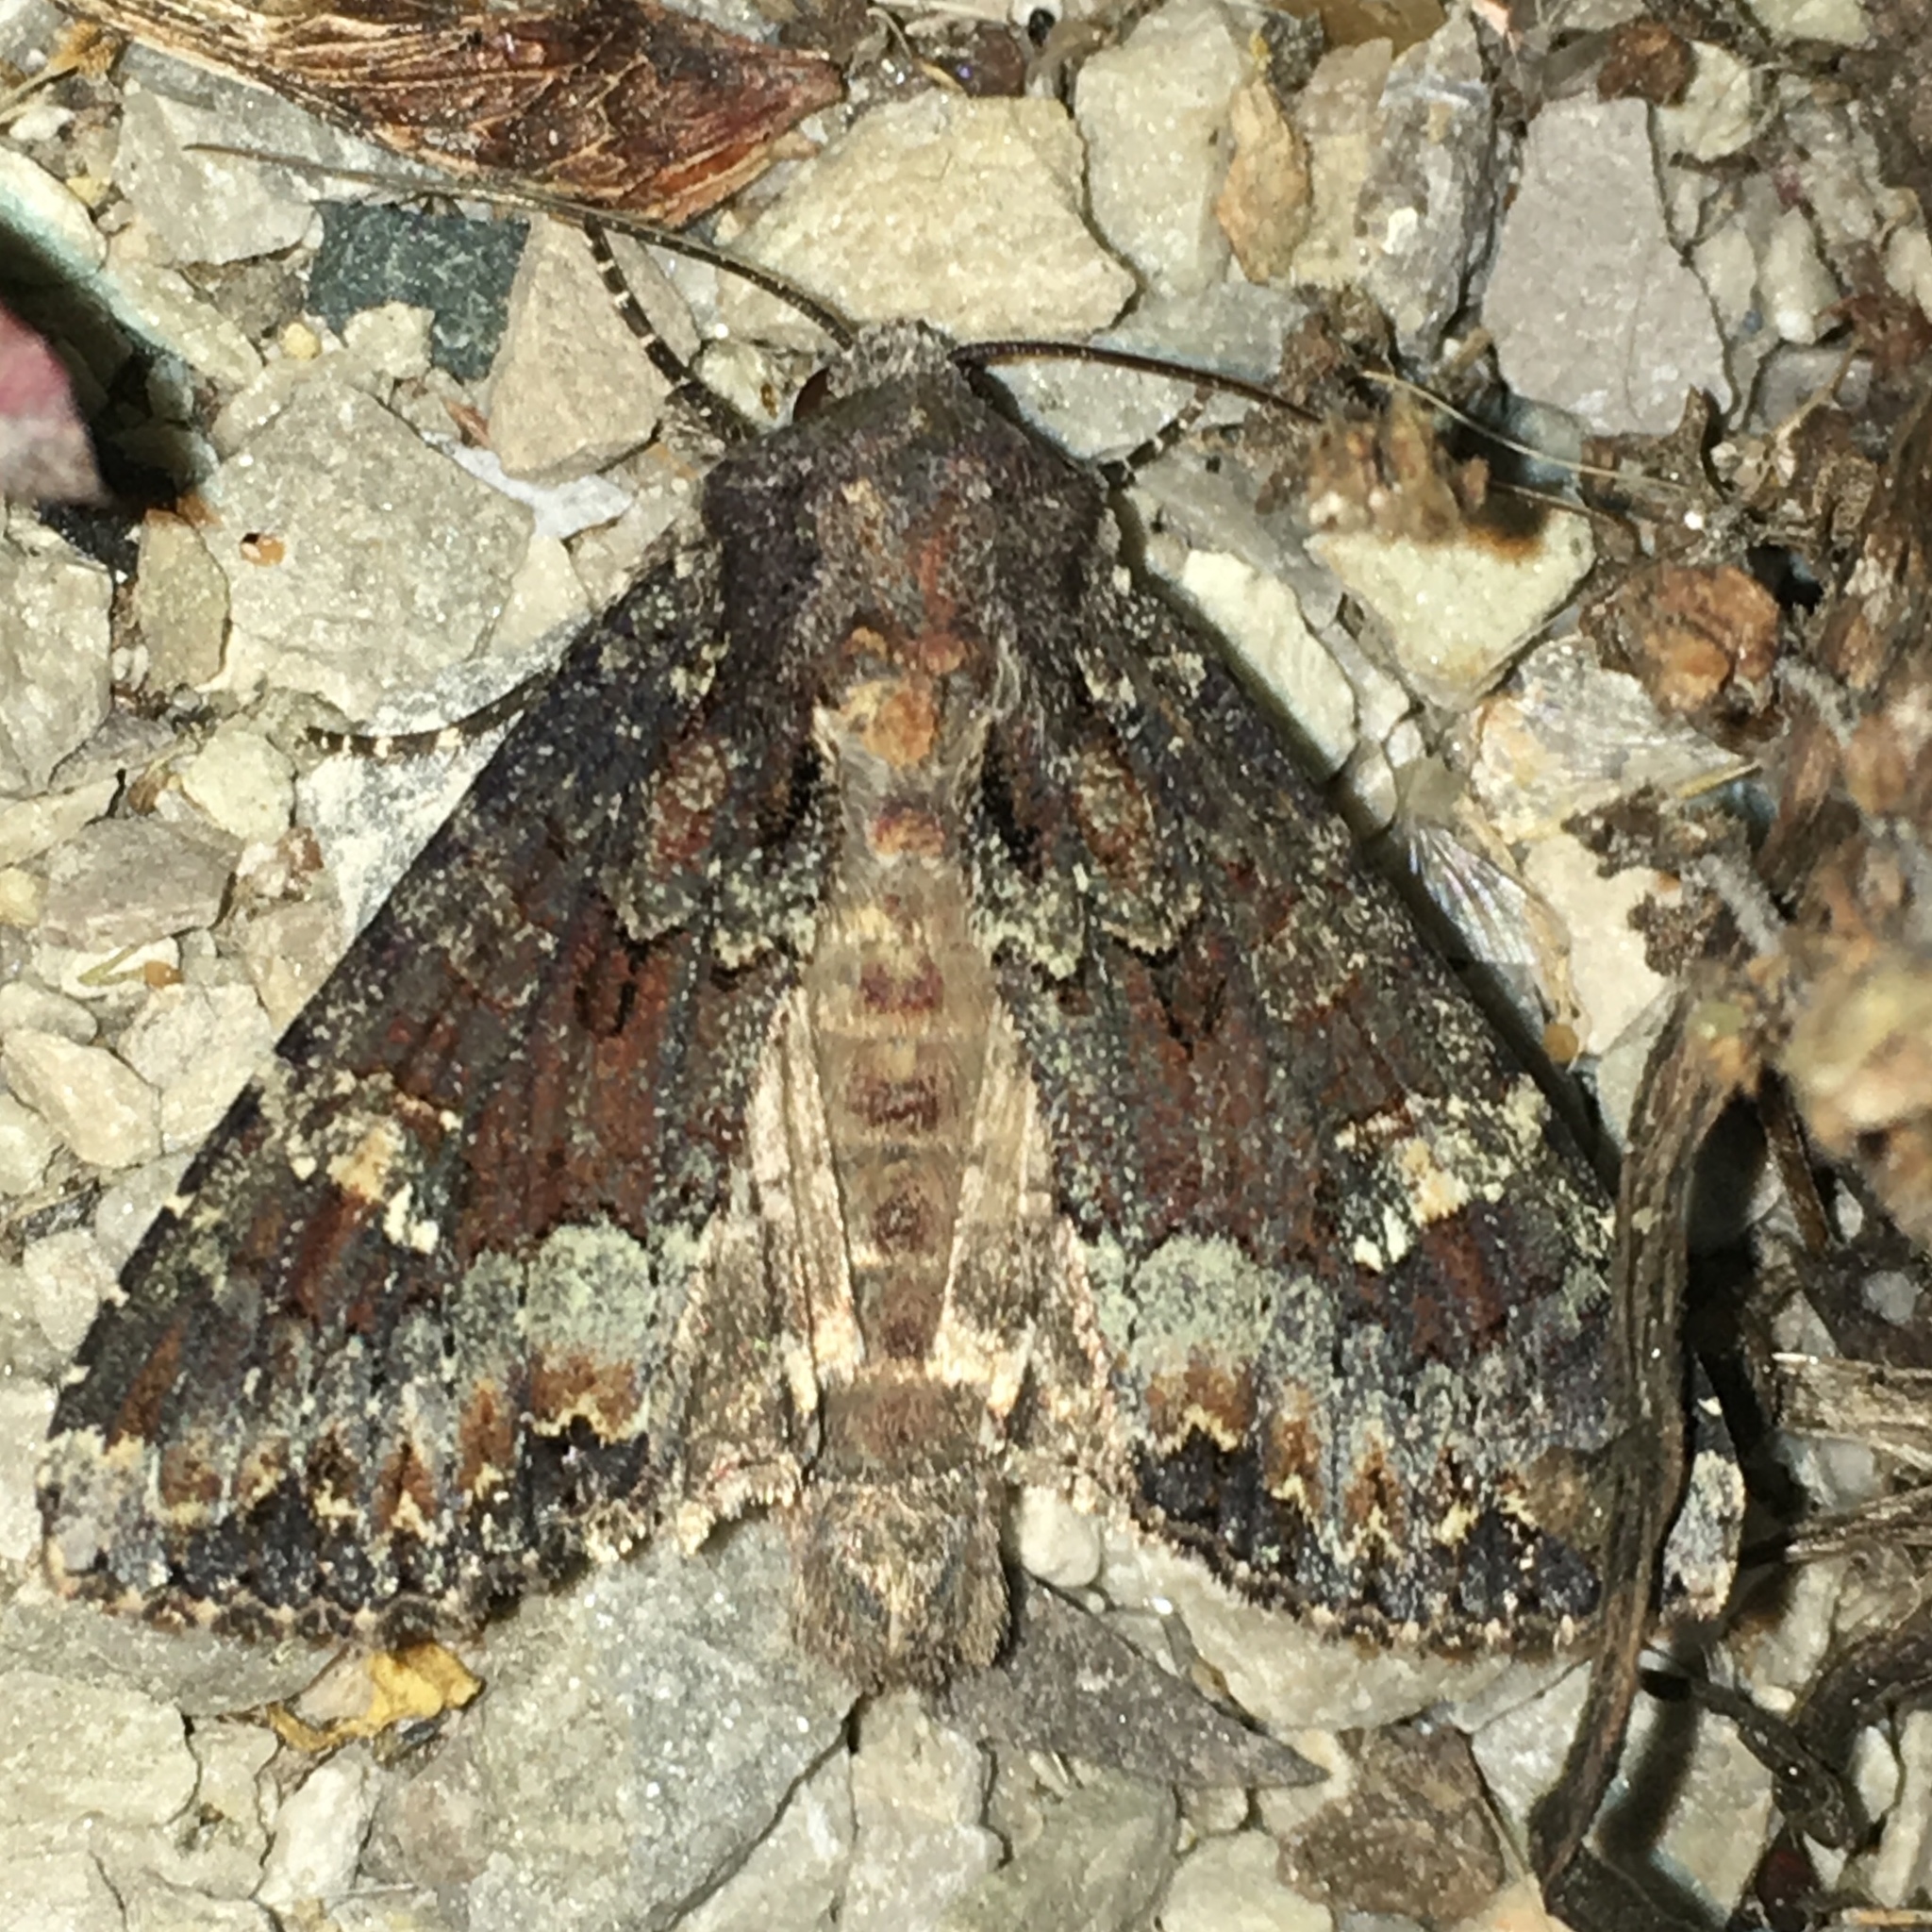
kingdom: Animalia
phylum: Arthropoda
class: Insecta
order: Lepidoptera
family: Noctuidae
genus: Apamea
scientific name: Apamea amputatrix
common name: Yellow-headed cutworm moth
